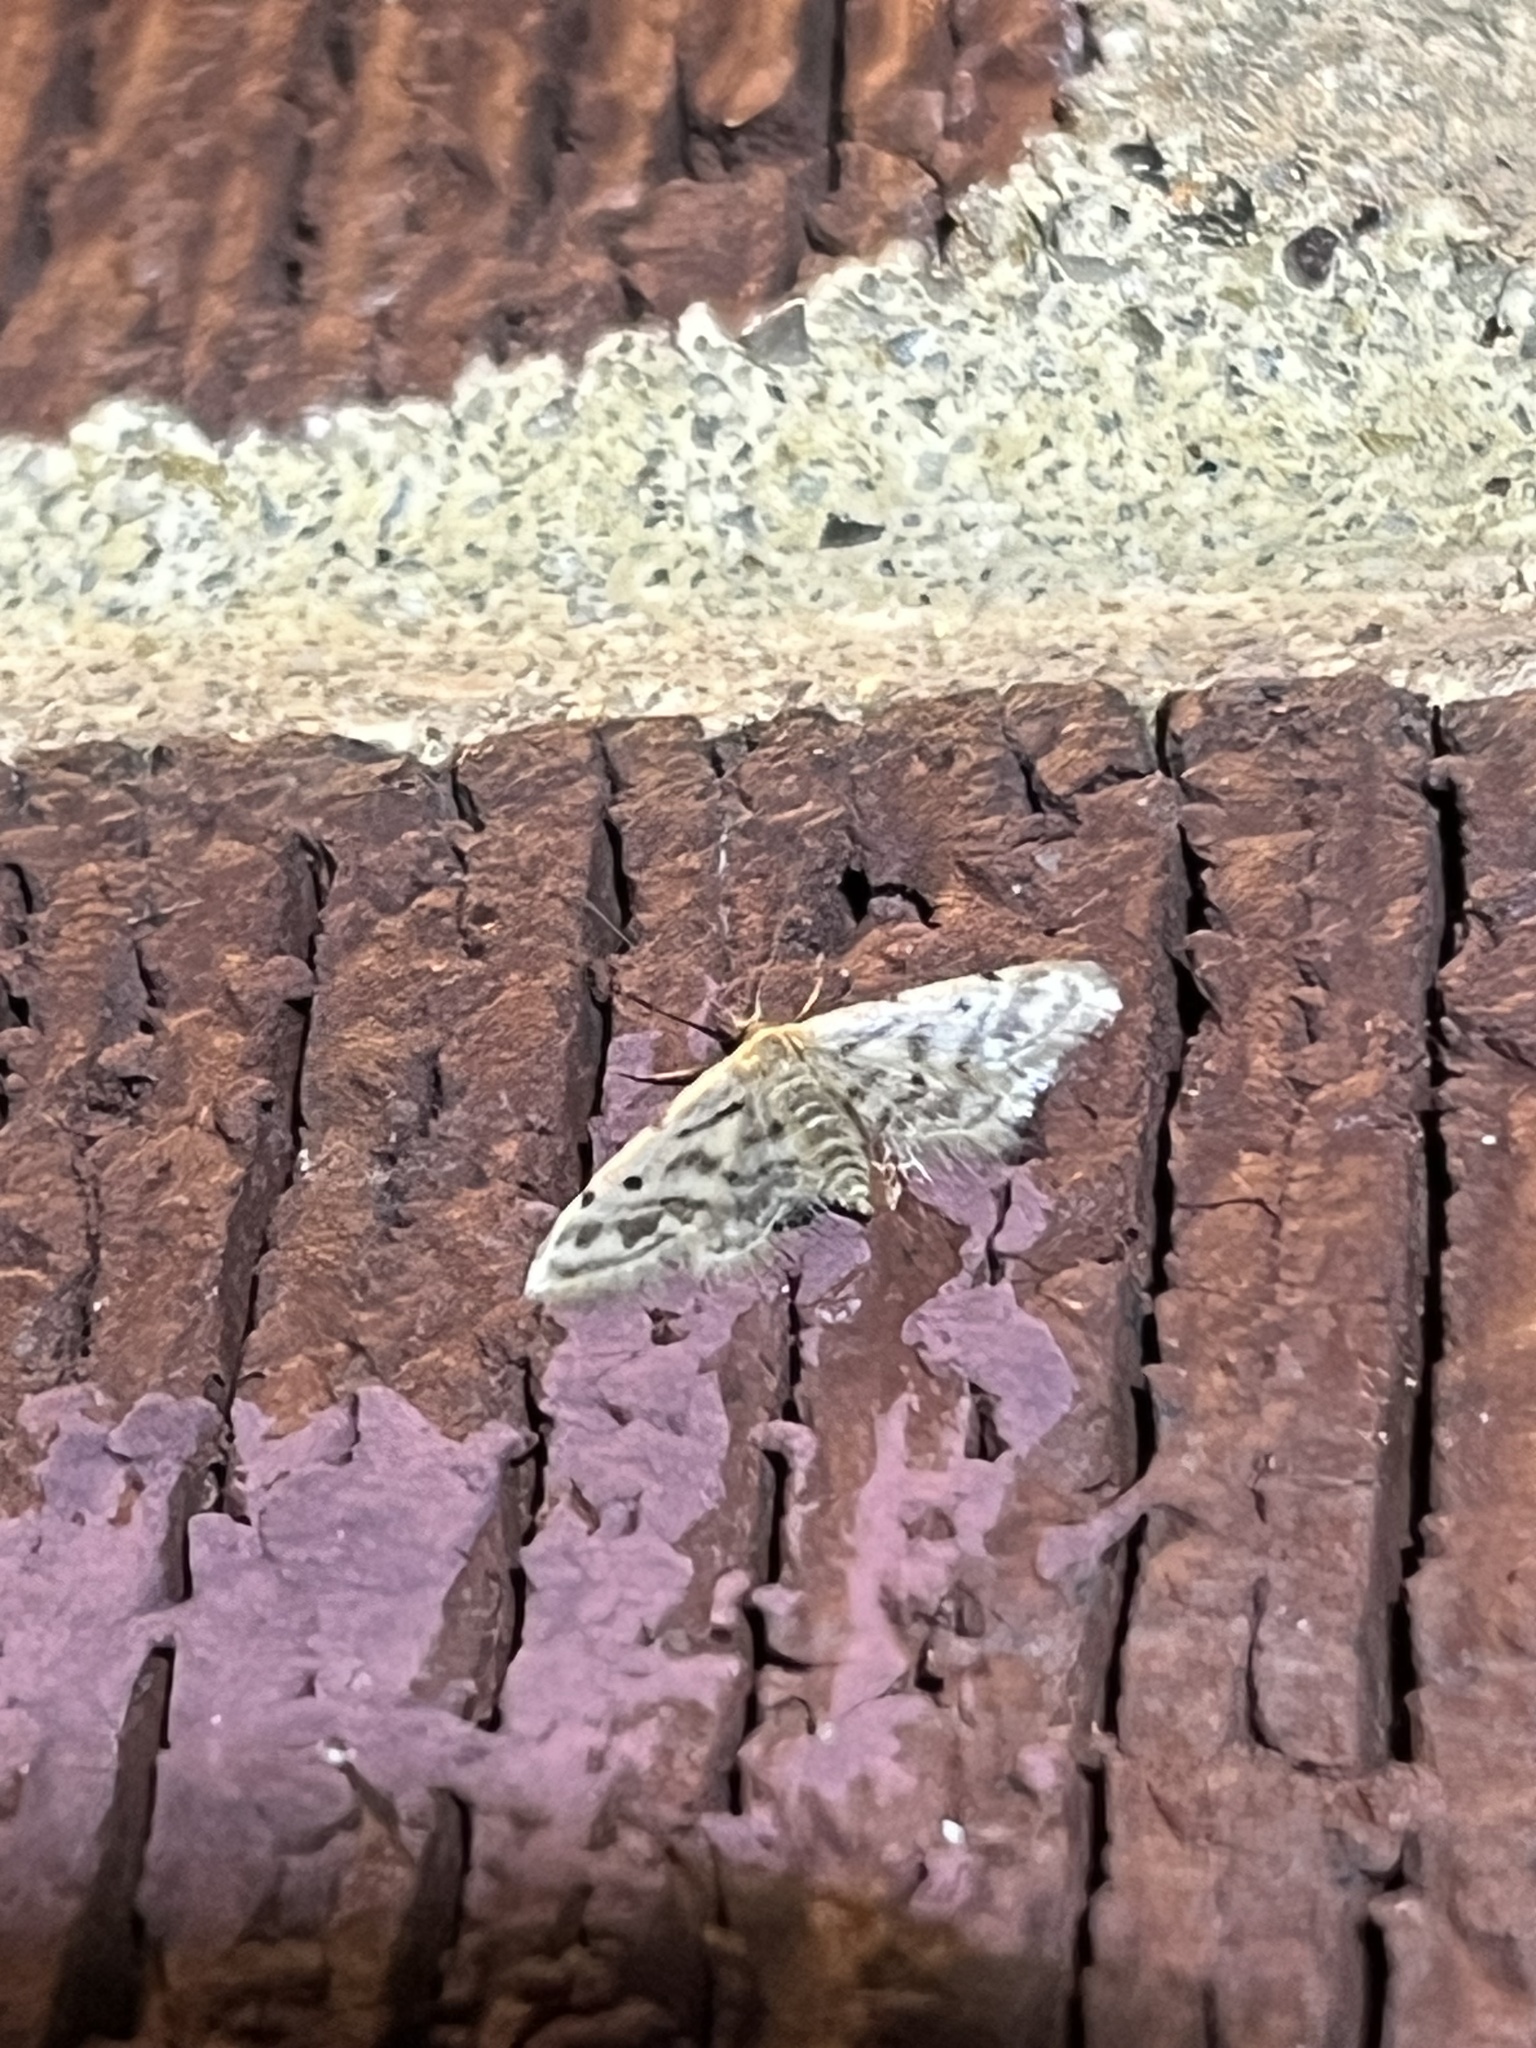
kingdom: Animalia
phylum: Arthropoda
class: Insecta
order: Lepidoptera
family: Geometridae
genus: Idaea
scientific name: Idaea bonifata
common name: Fortunate wave
